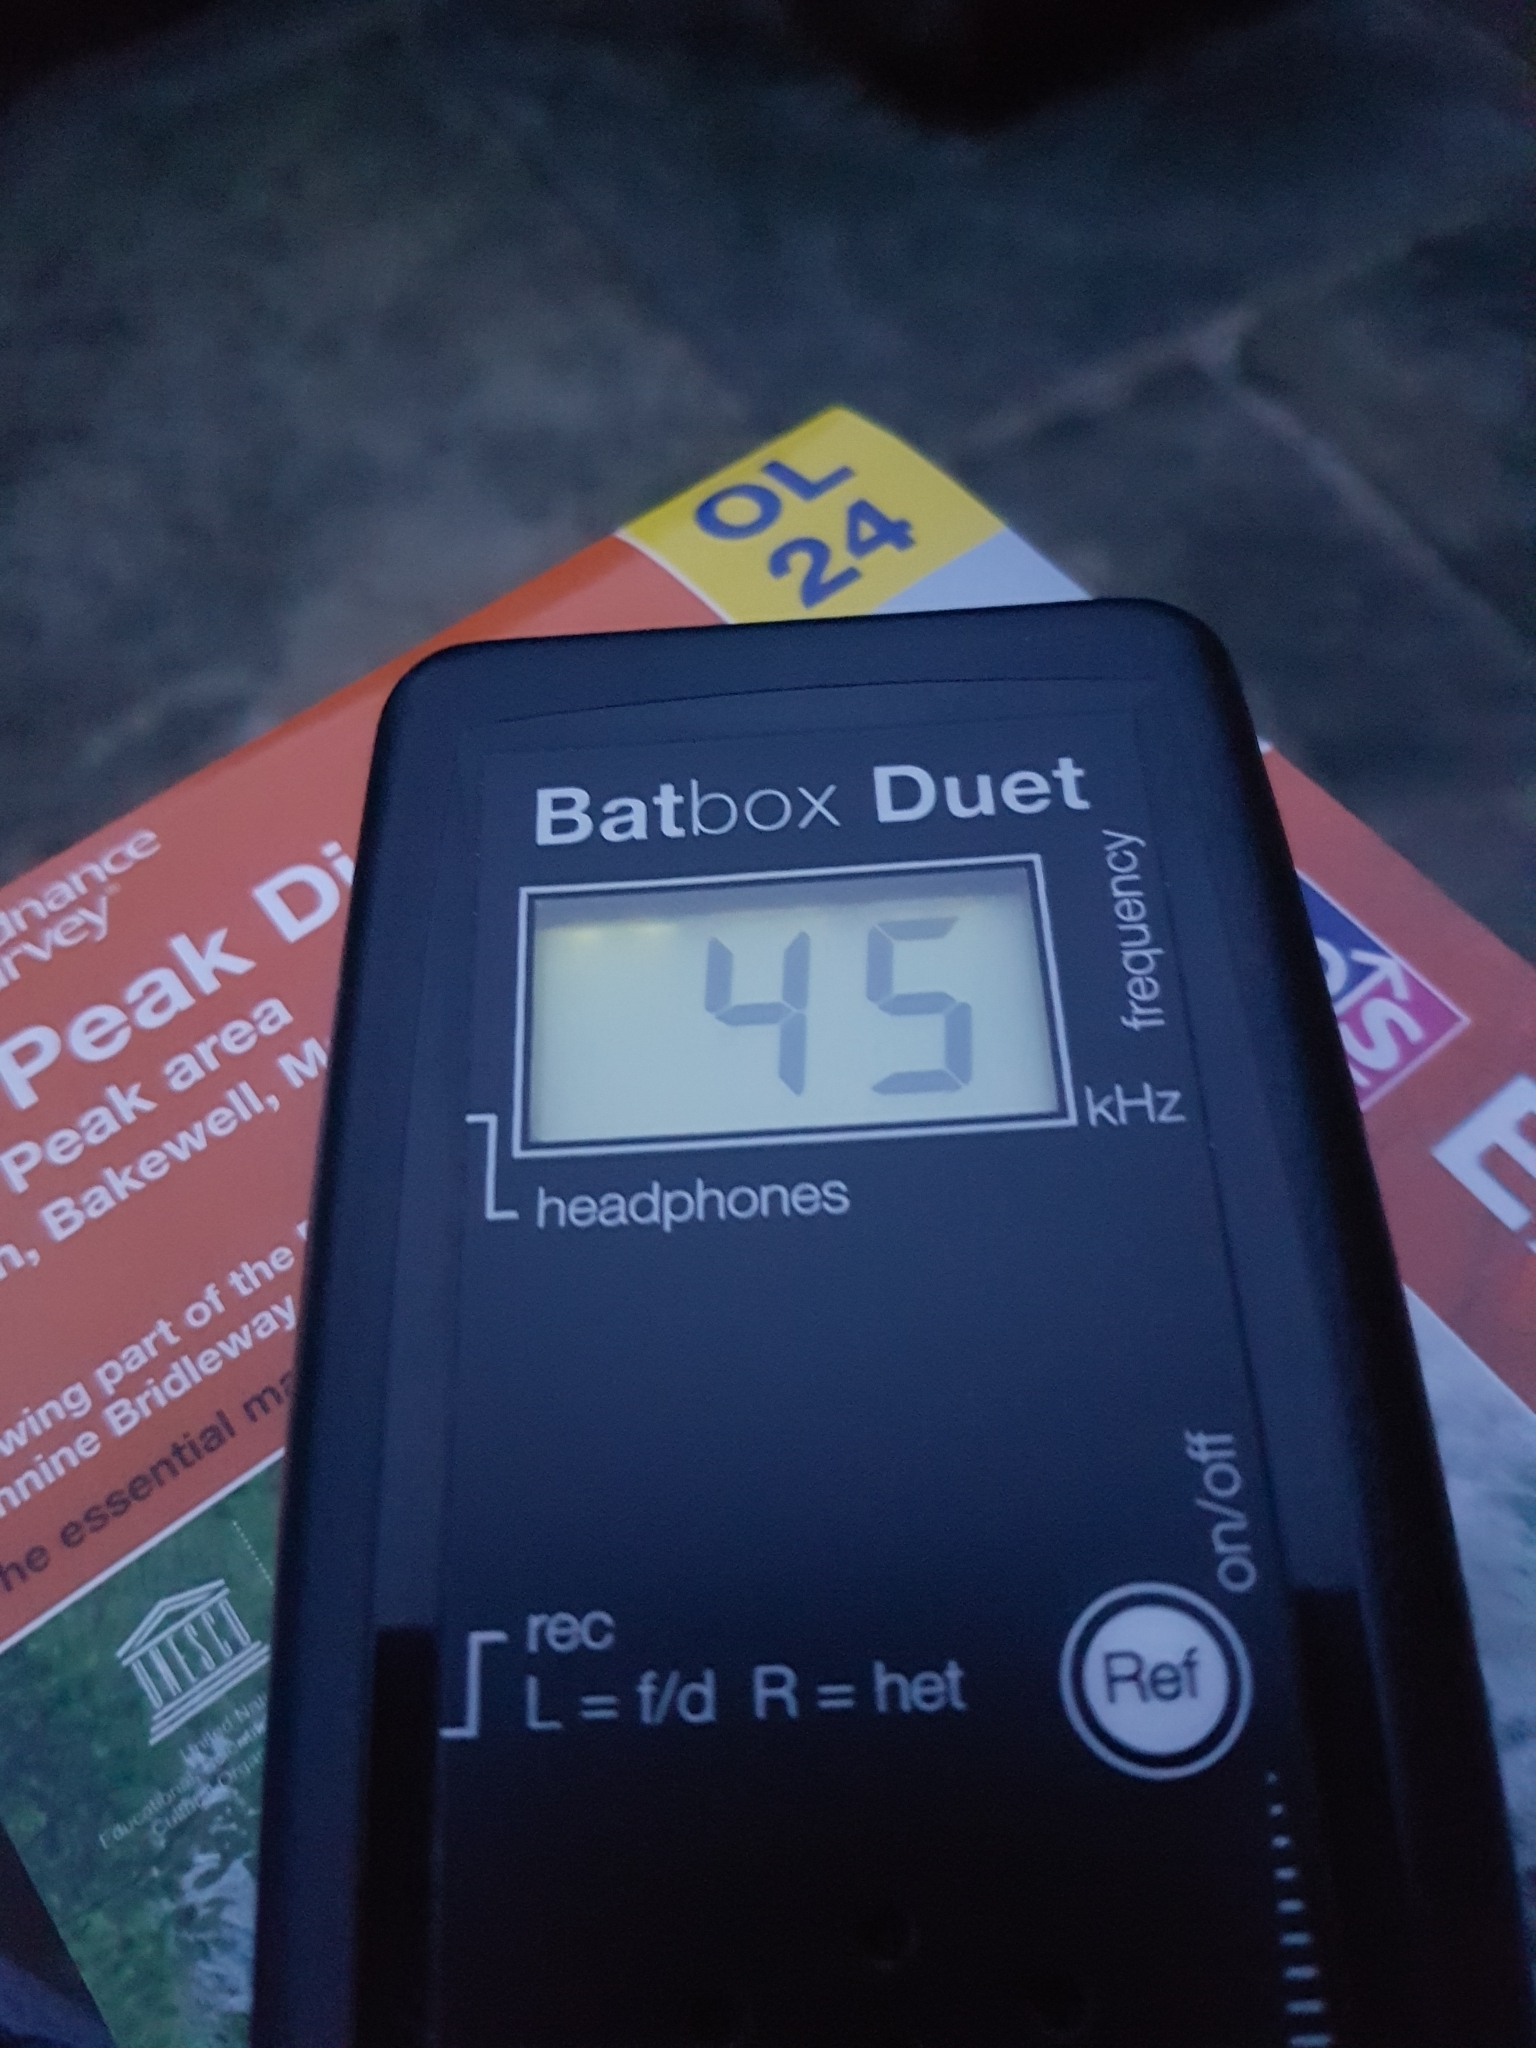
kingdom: Animalia
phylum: Chordata
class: Mammalia
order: Chiroptera
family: Vespertilionidae
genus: Pipistrellus
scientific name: Pipistrellus pipistrellus
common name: Common pipistrelle
